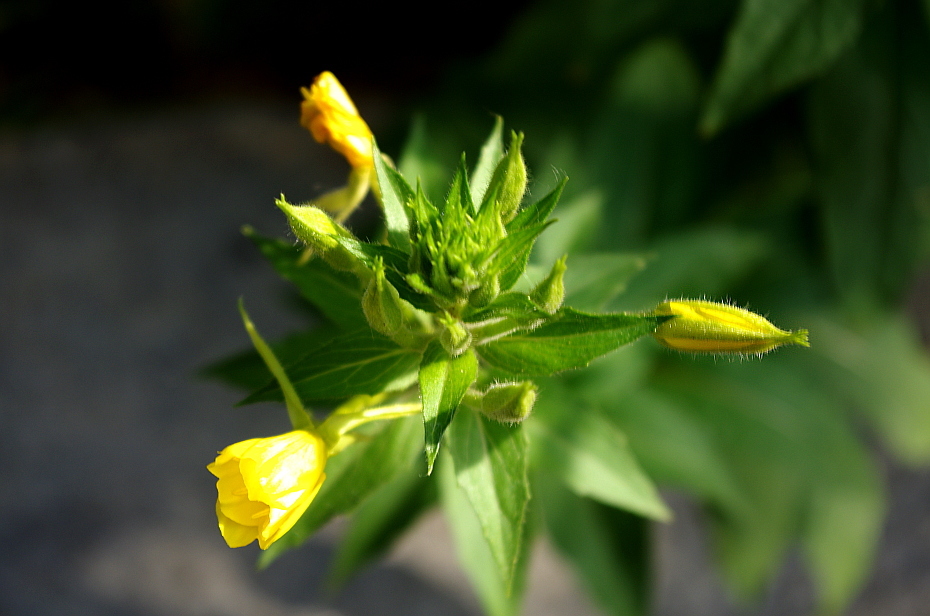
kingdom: Plantae
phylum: Tracheophyta
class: Magnoliopsida
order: Myrtales
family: Onagraceae
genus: Oenothera
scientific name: Oenothera rubricaulis
